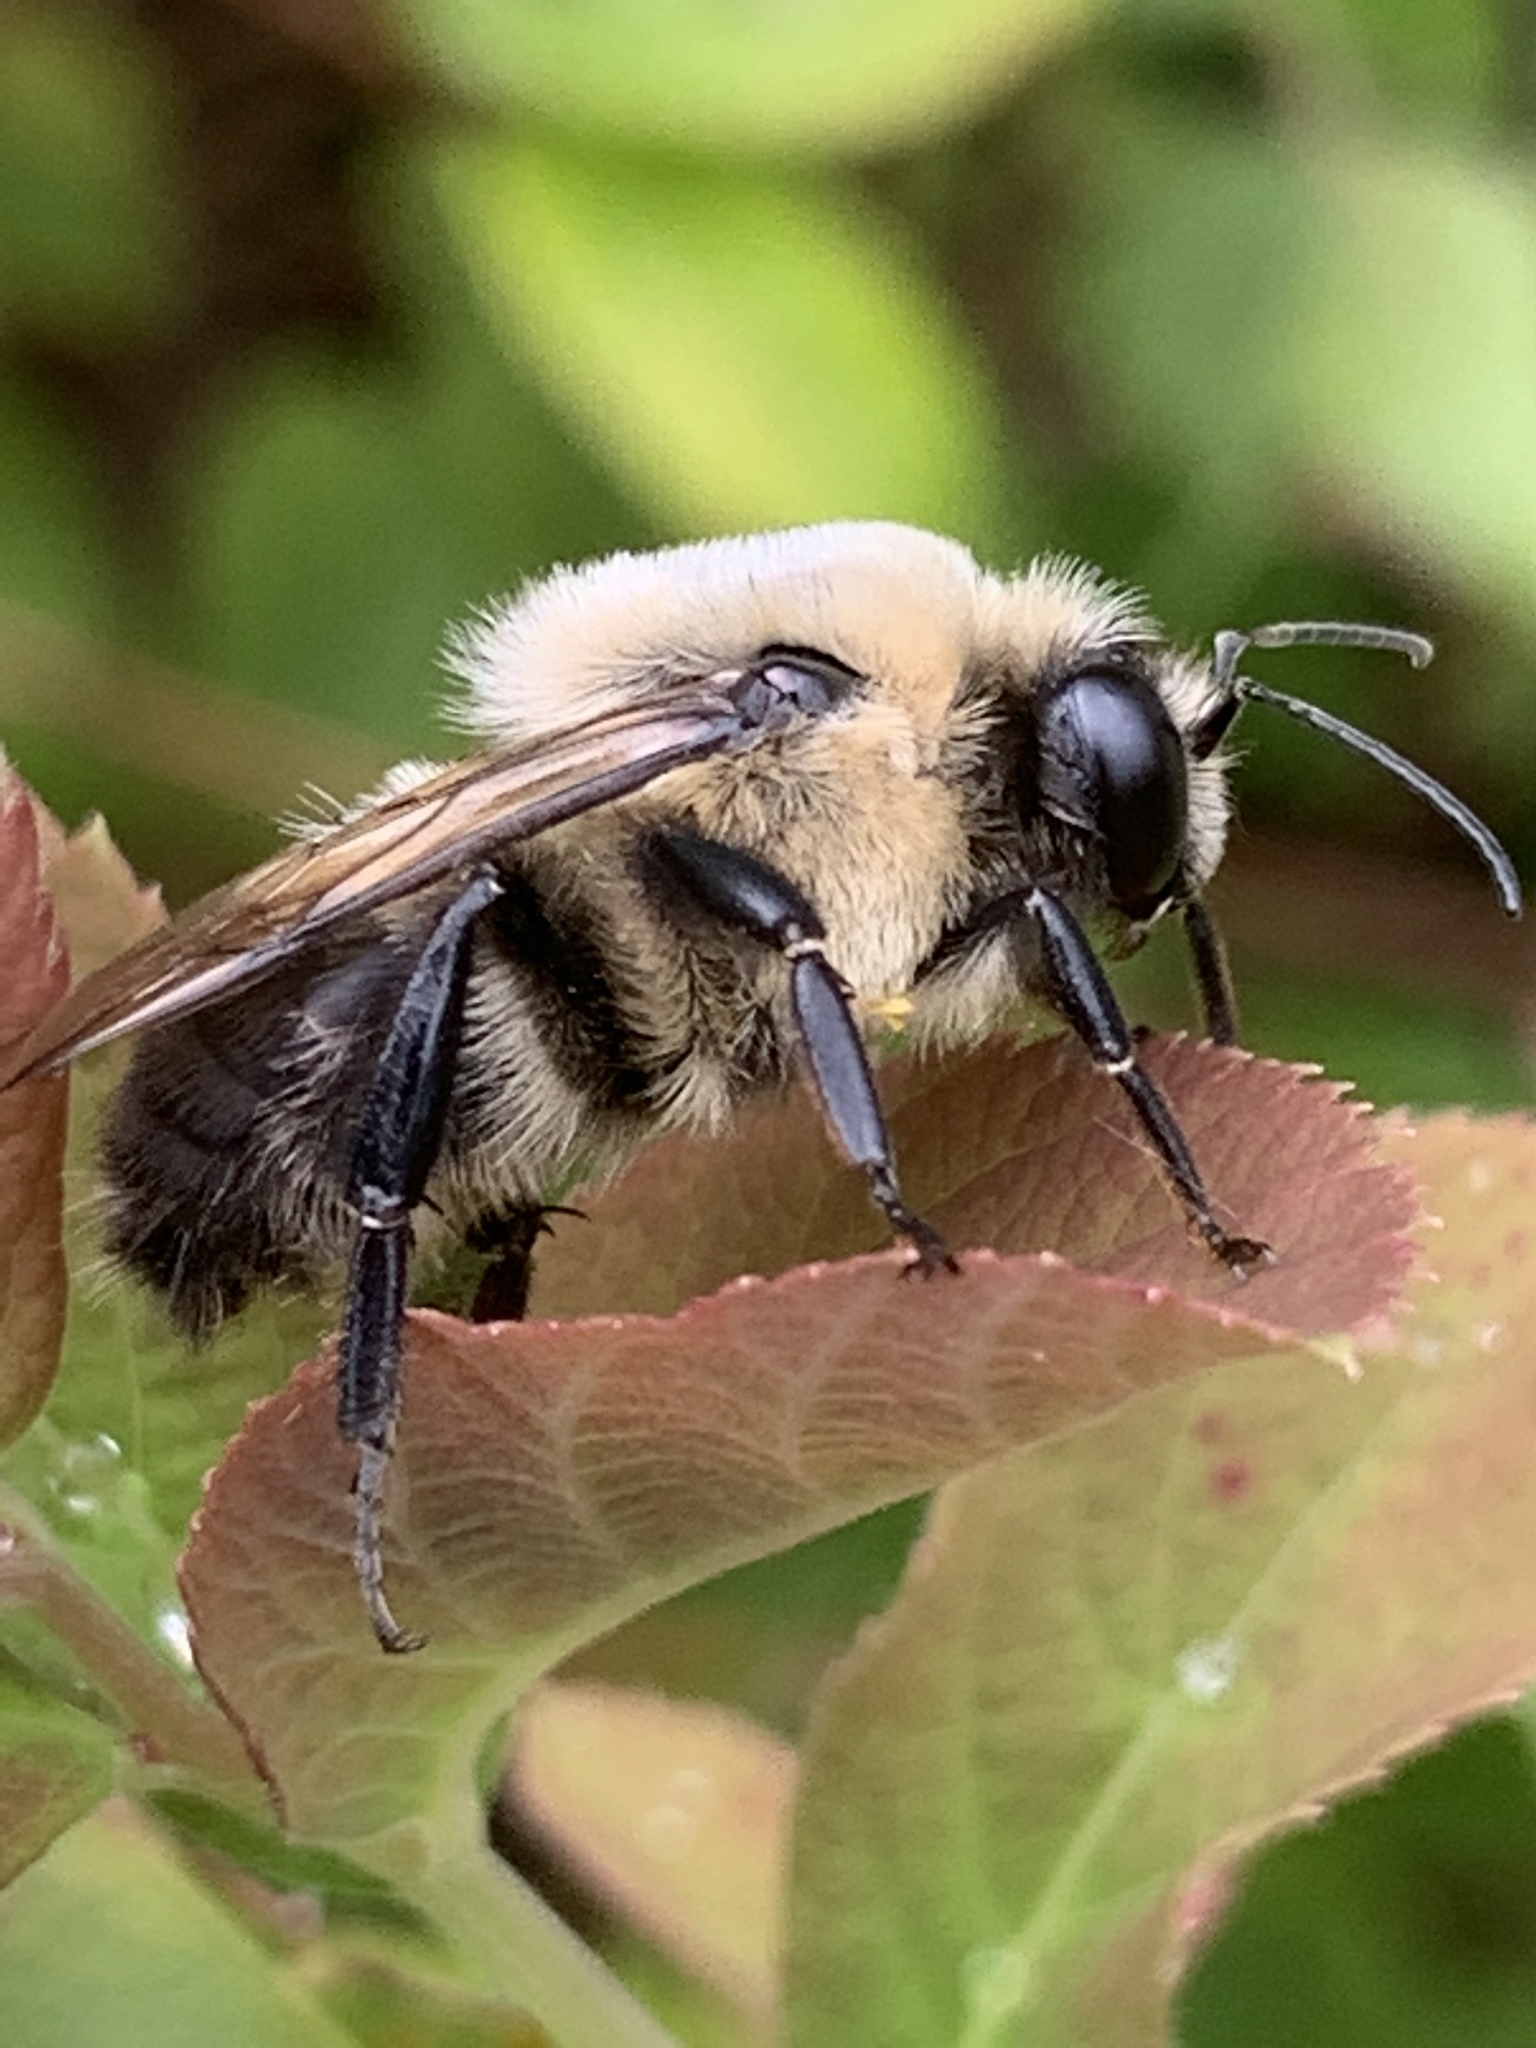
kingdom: Animalia
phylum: Arthropoda
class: Insecta
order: Hymenoptera
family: Apidae
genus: Bombus
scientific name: Bombus griseocollis
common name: Brown-belted bumble bee
